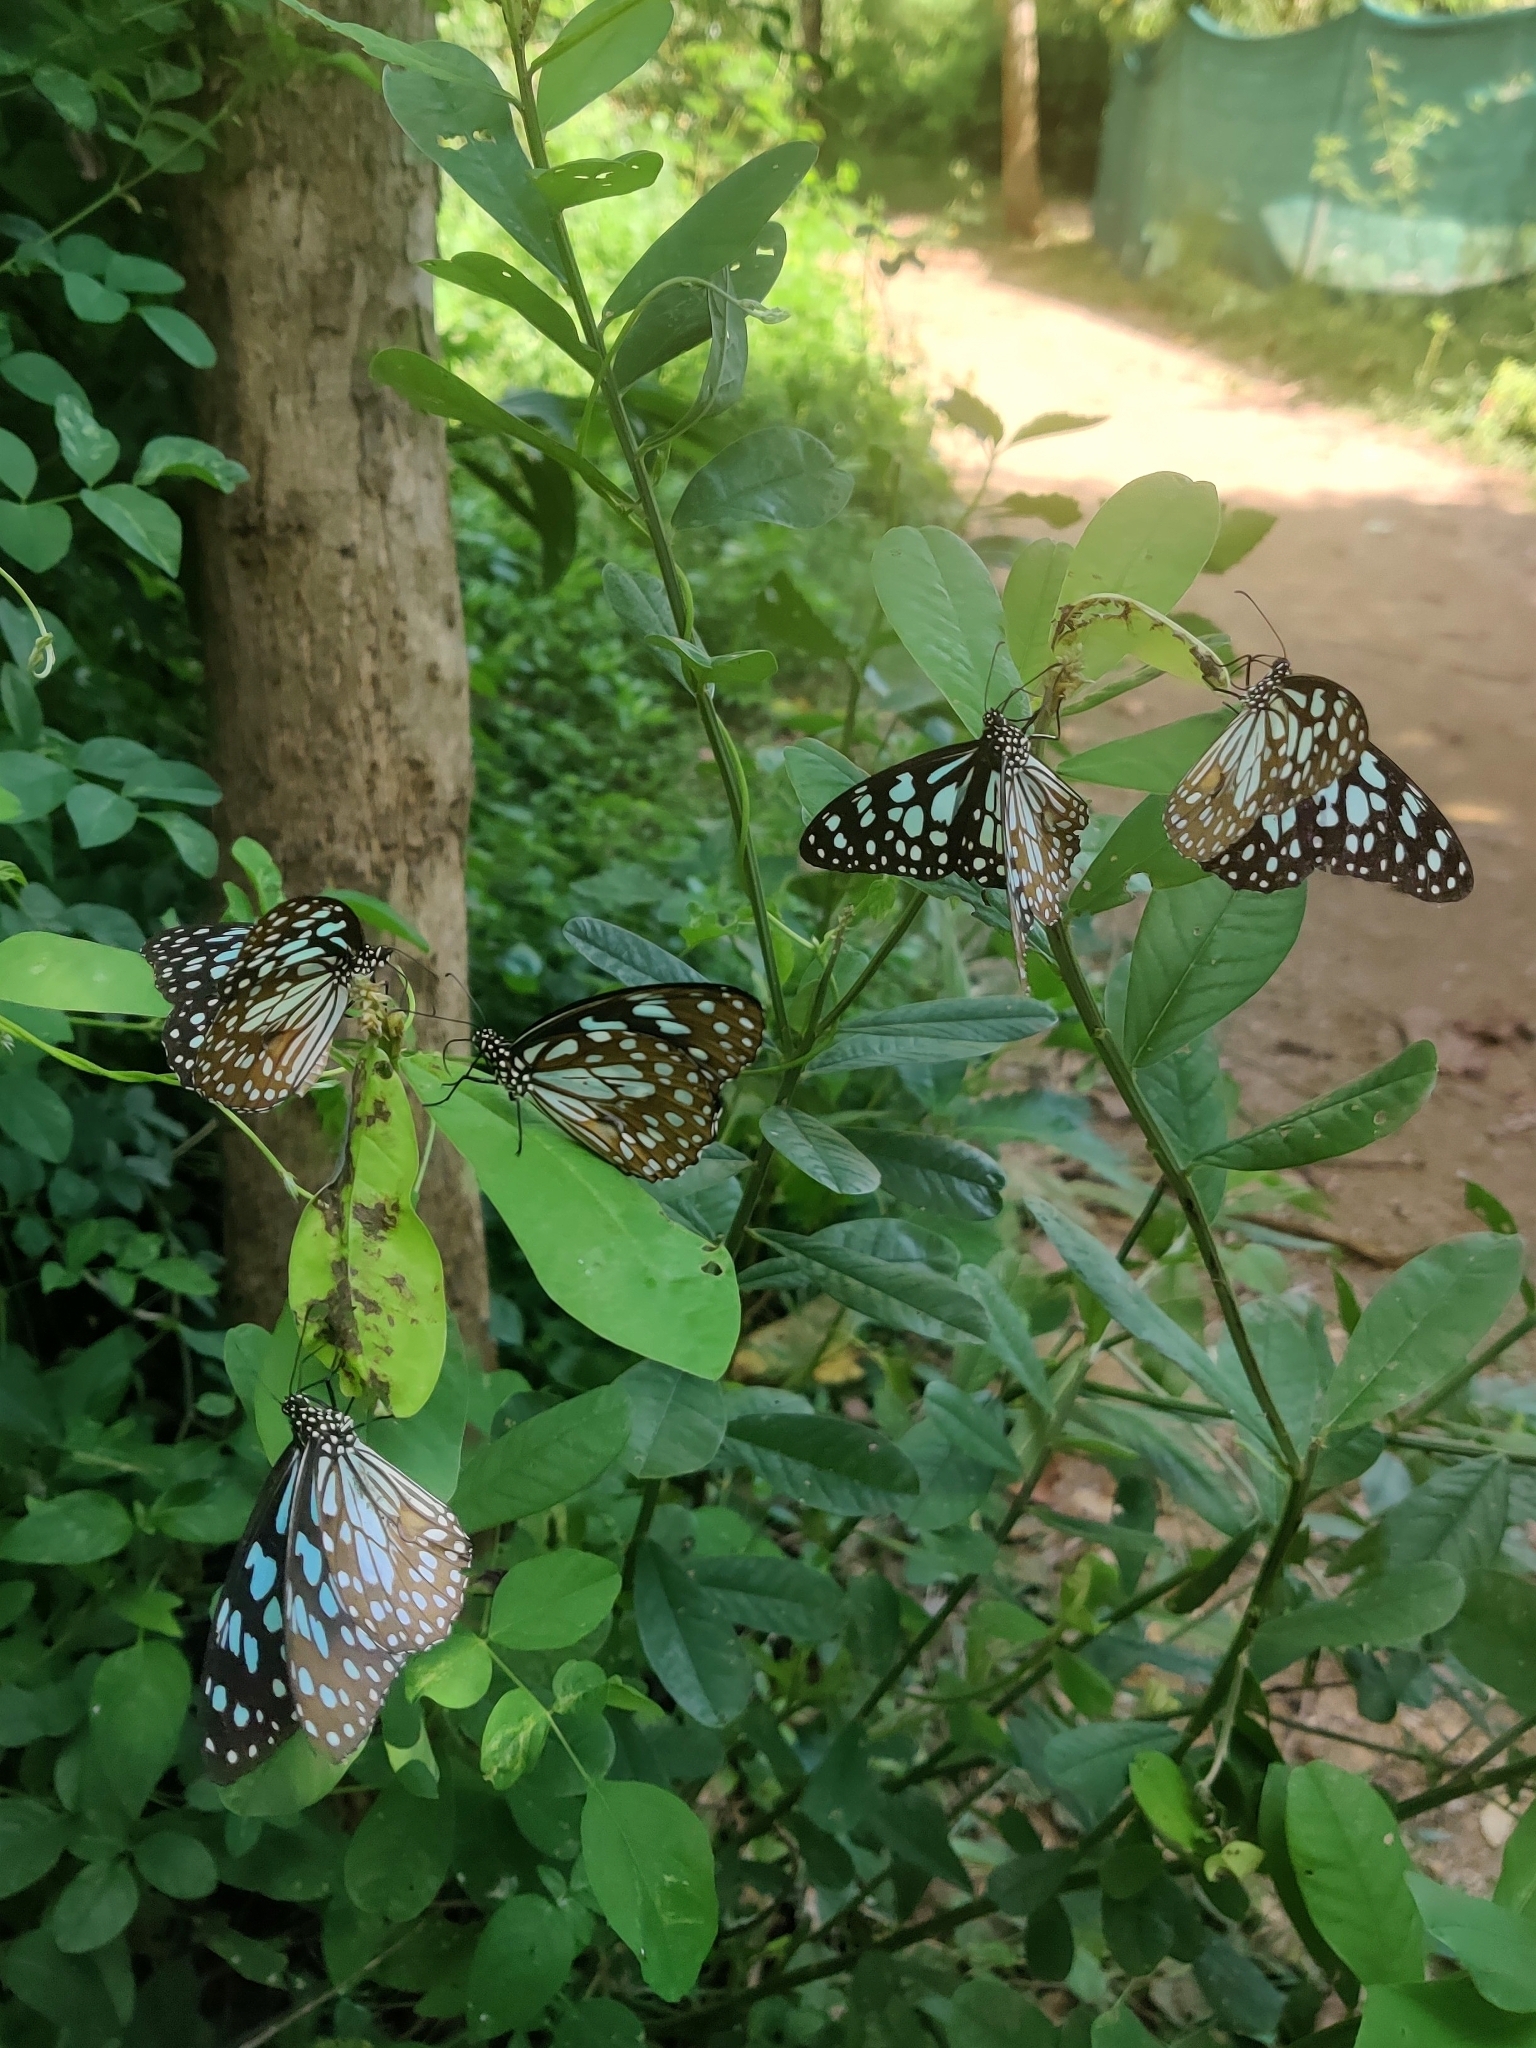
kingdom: Animalia
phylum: Arthropoda
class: Insecta
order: Lepidoptera
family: Nymphalidae
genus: Tirumala
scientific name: Tirumala limniace
